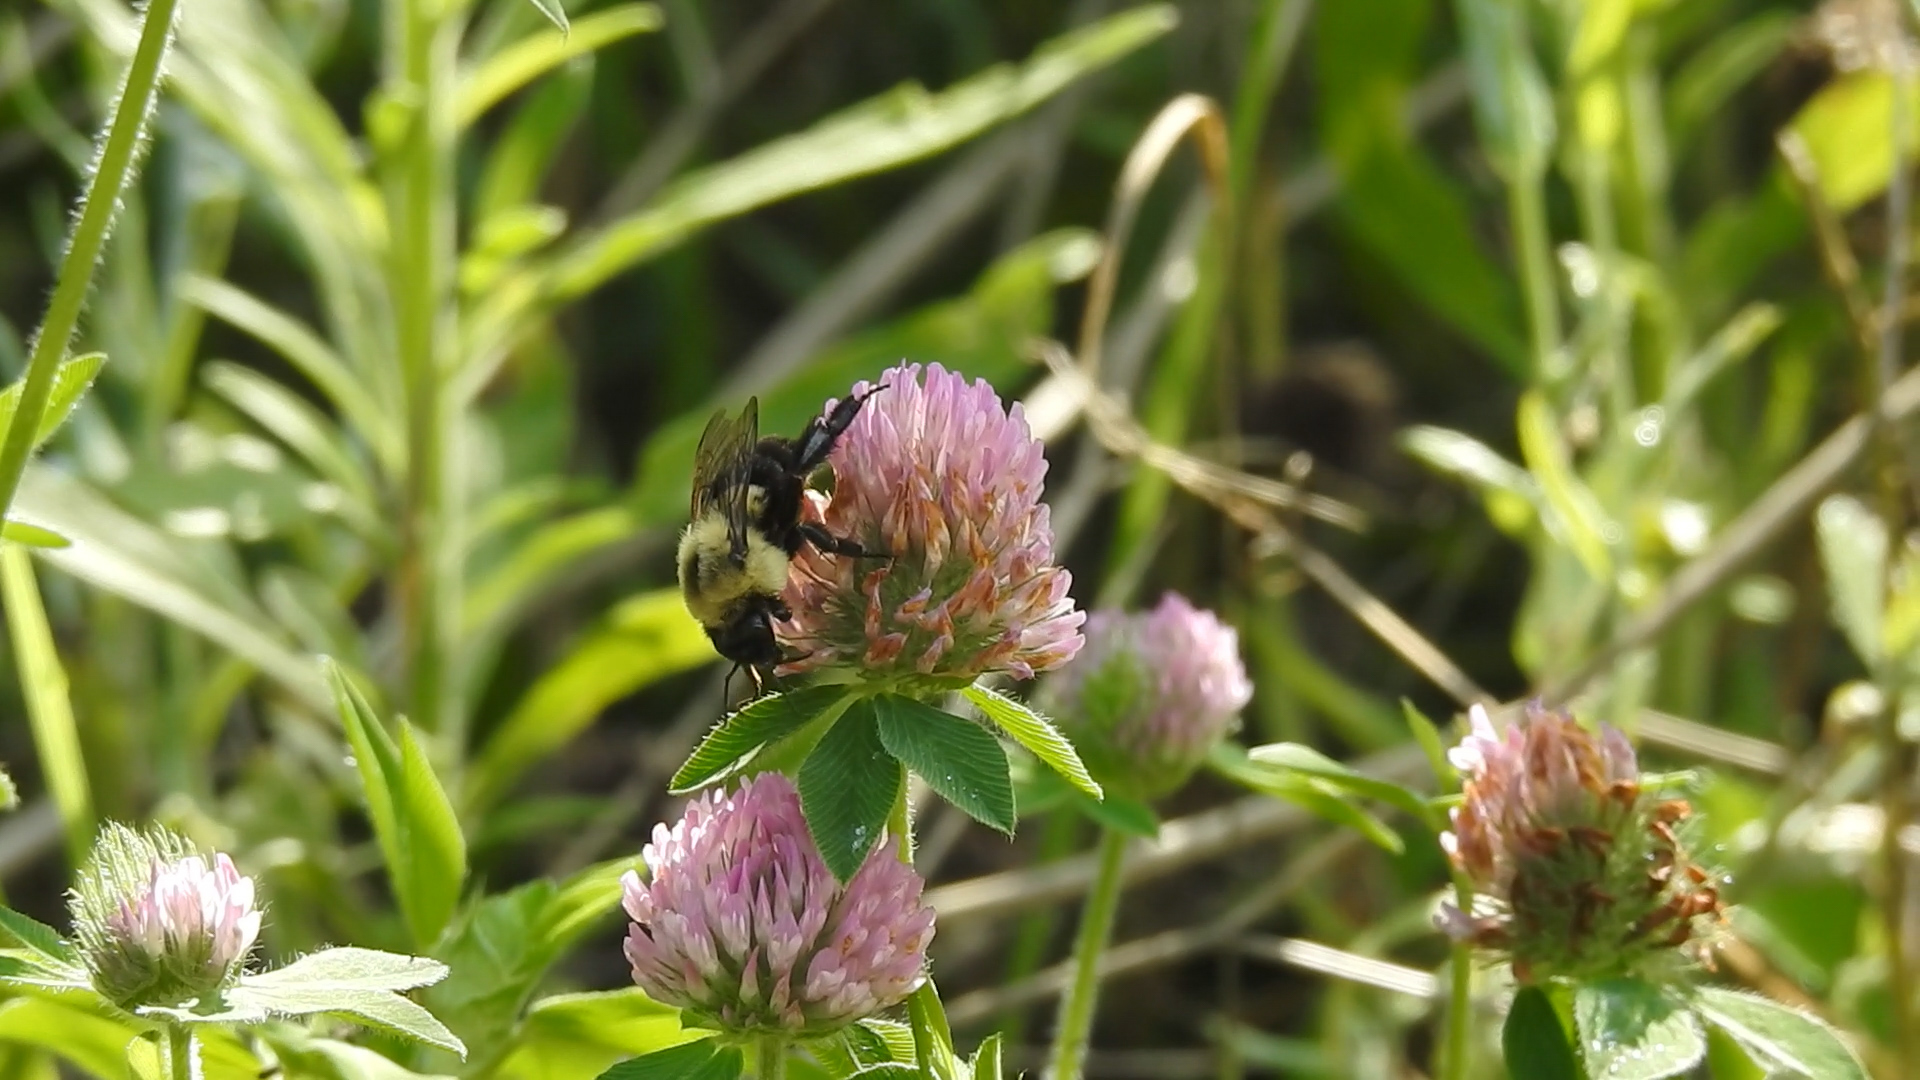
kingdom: Animalia
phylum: Arthropoda
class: Insecta
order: Hymenoptera
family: Apidae
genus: Bombus
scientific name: Bombus impatiens
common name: Common eastern bumble bee
